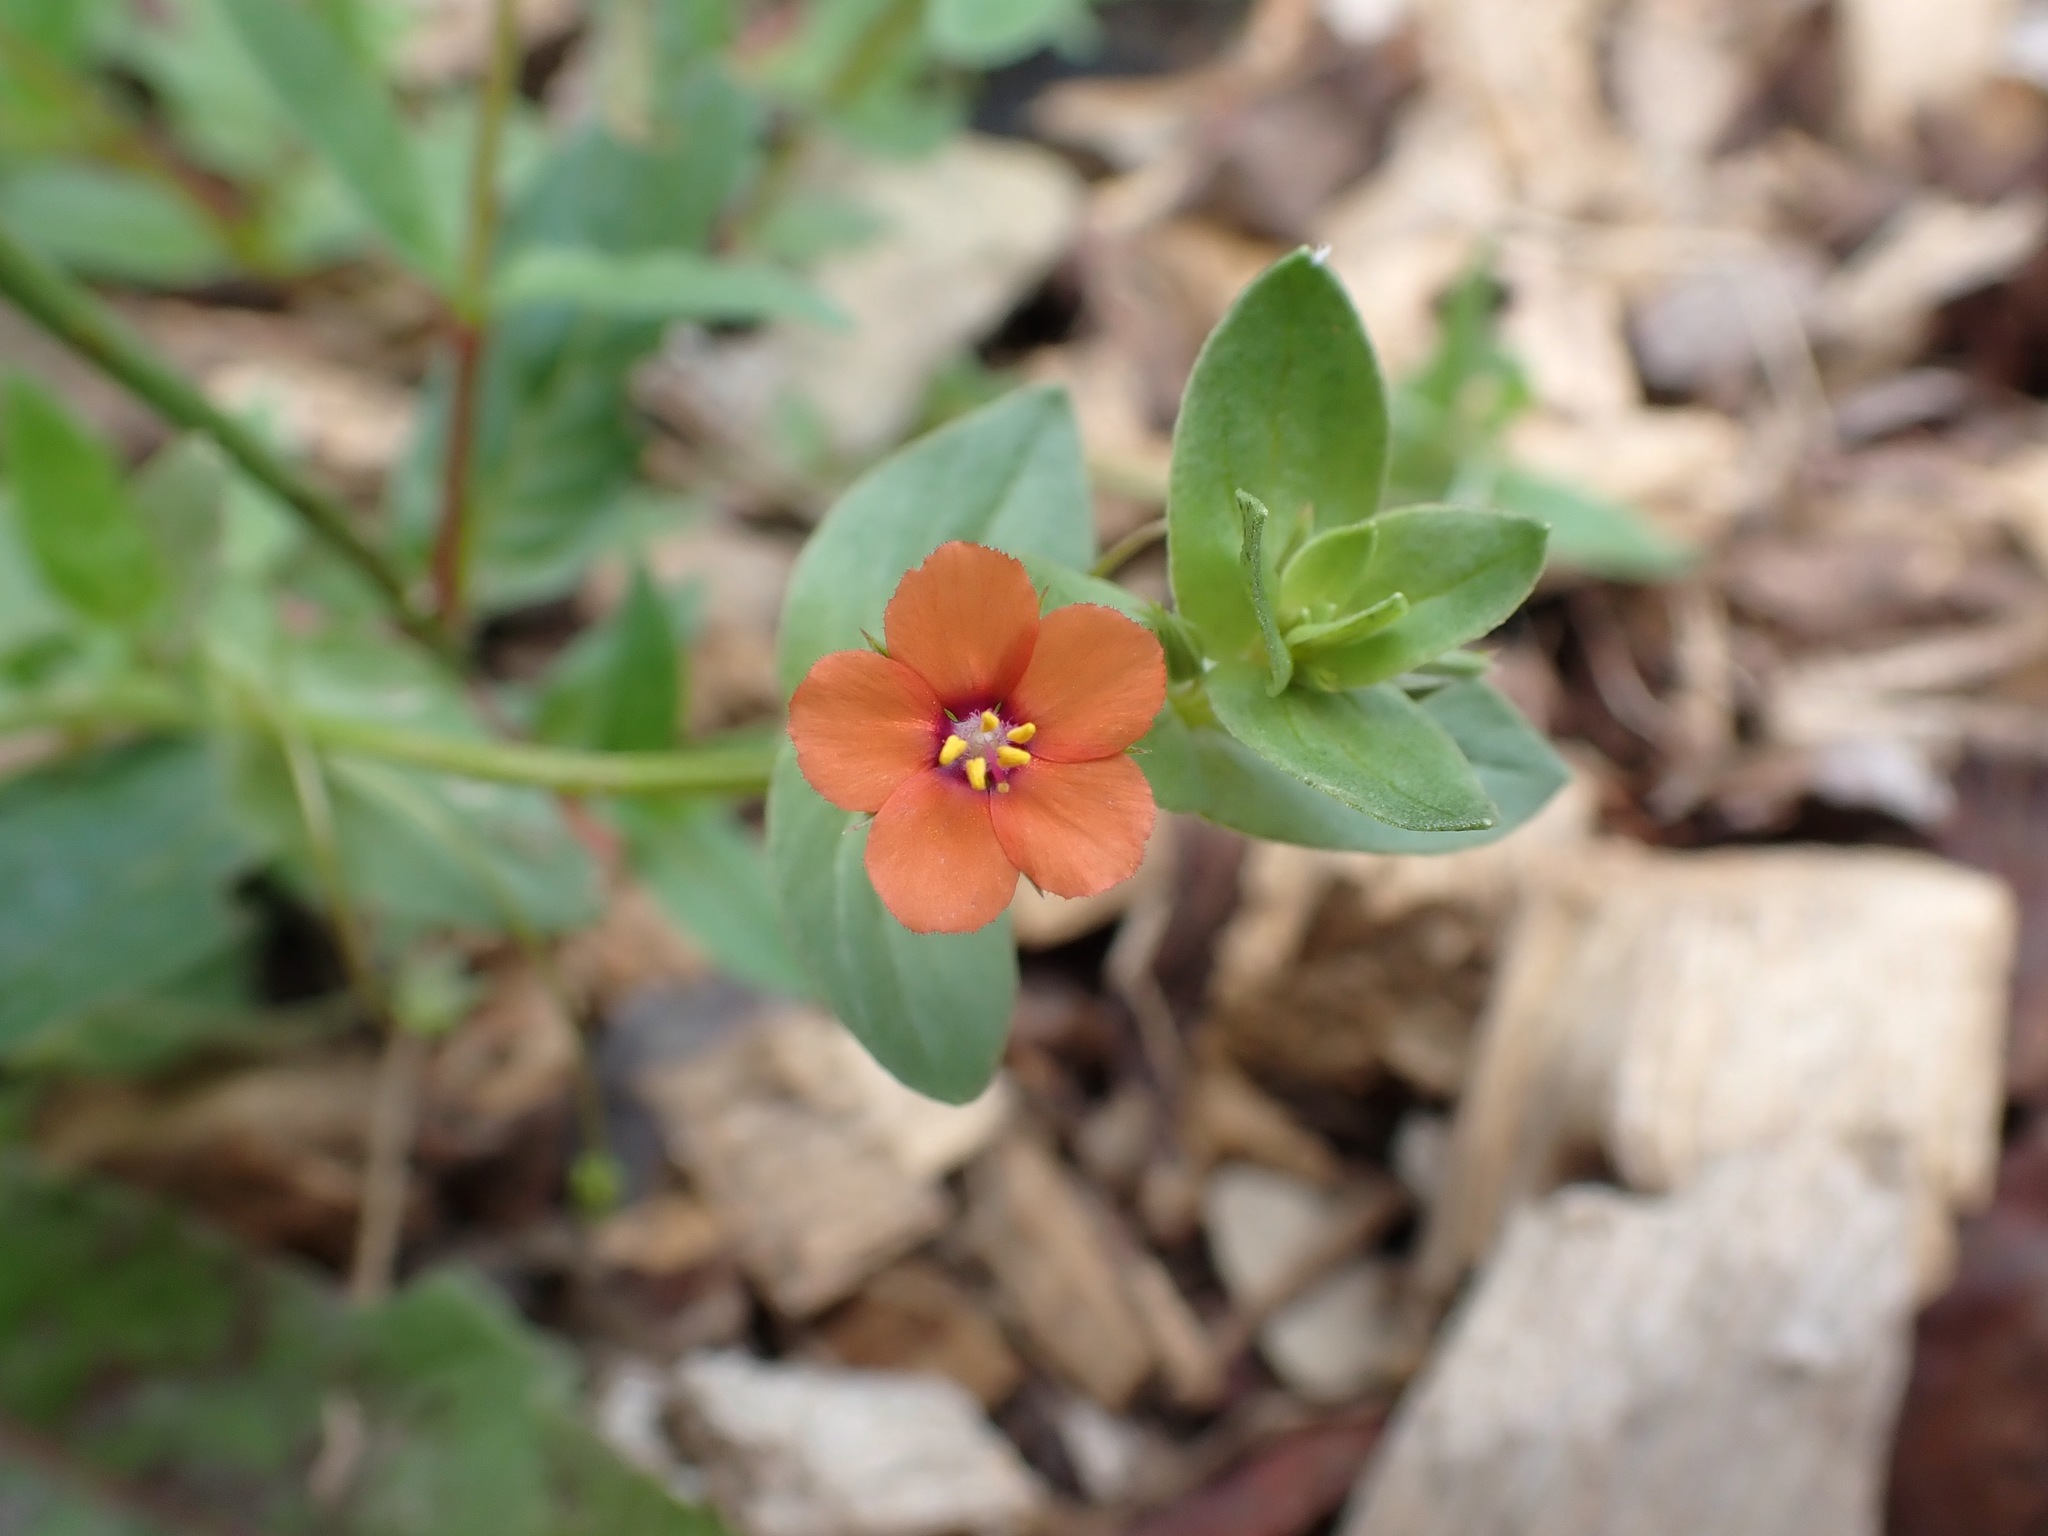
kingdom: Plantae
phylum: Tracheophyta
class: Magnoliopsida
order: Ericales
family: Primulaceae
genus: Lysimachia
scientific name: Lysimachia arvensis
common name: Scarlet pimpernel
